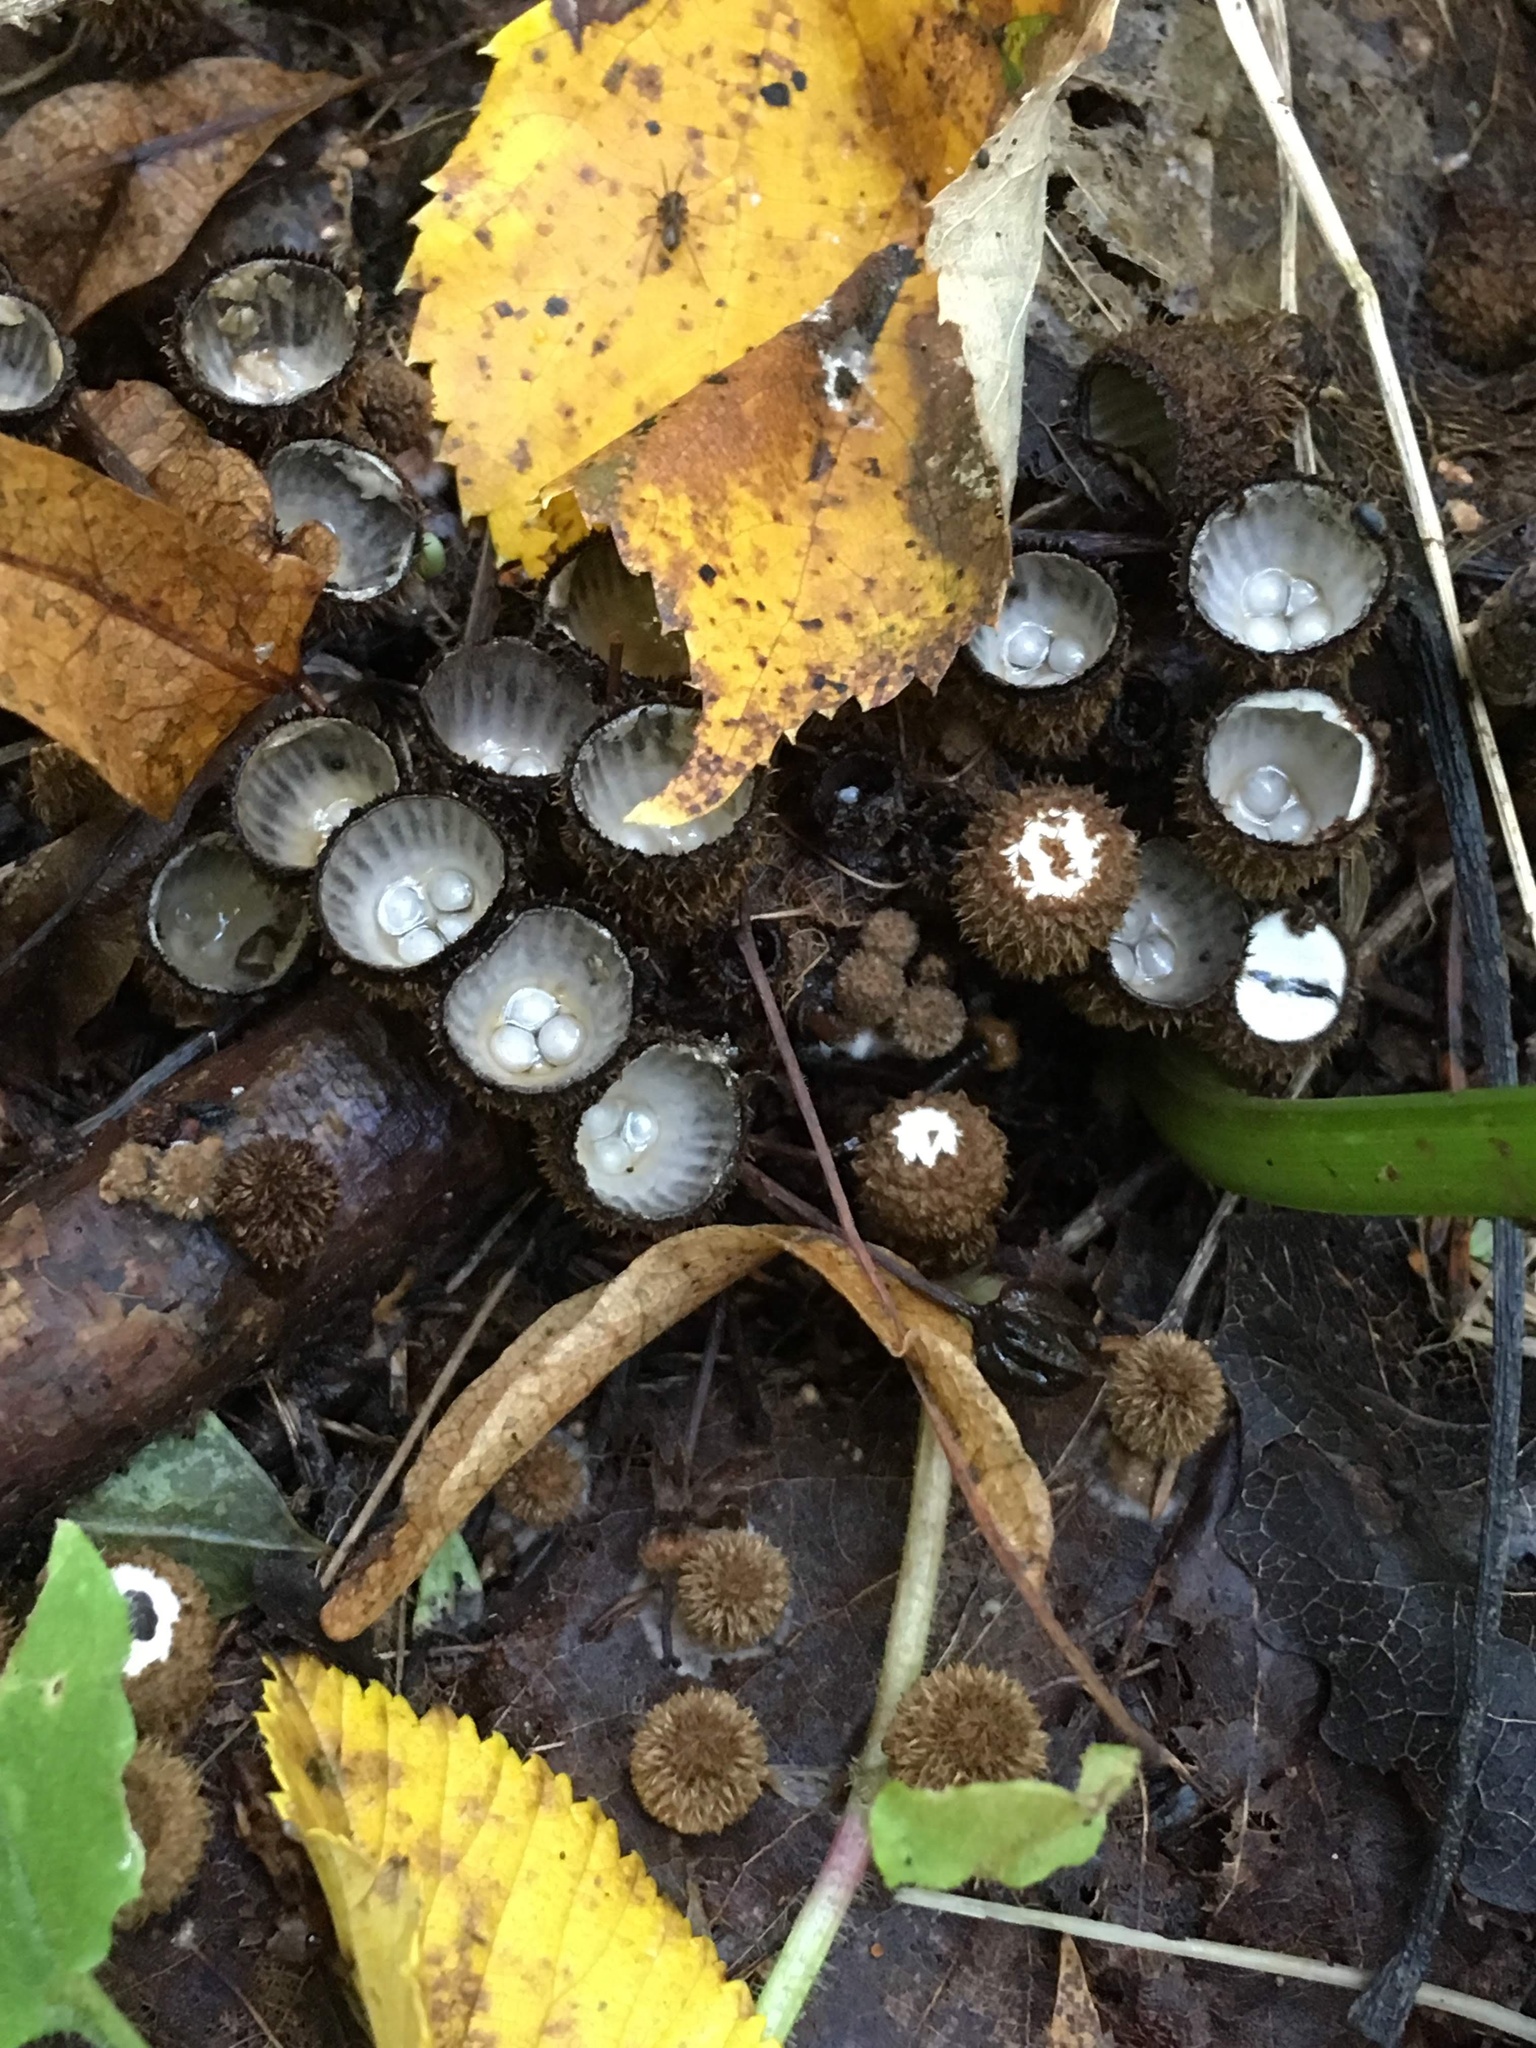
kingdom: Fungi
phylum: Basidiomycota
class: Agaricomycetes
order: Agaricales
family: Agaricaceae
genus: Cyathus
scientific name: Cyathus striatus
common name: Fluted bird's nest
